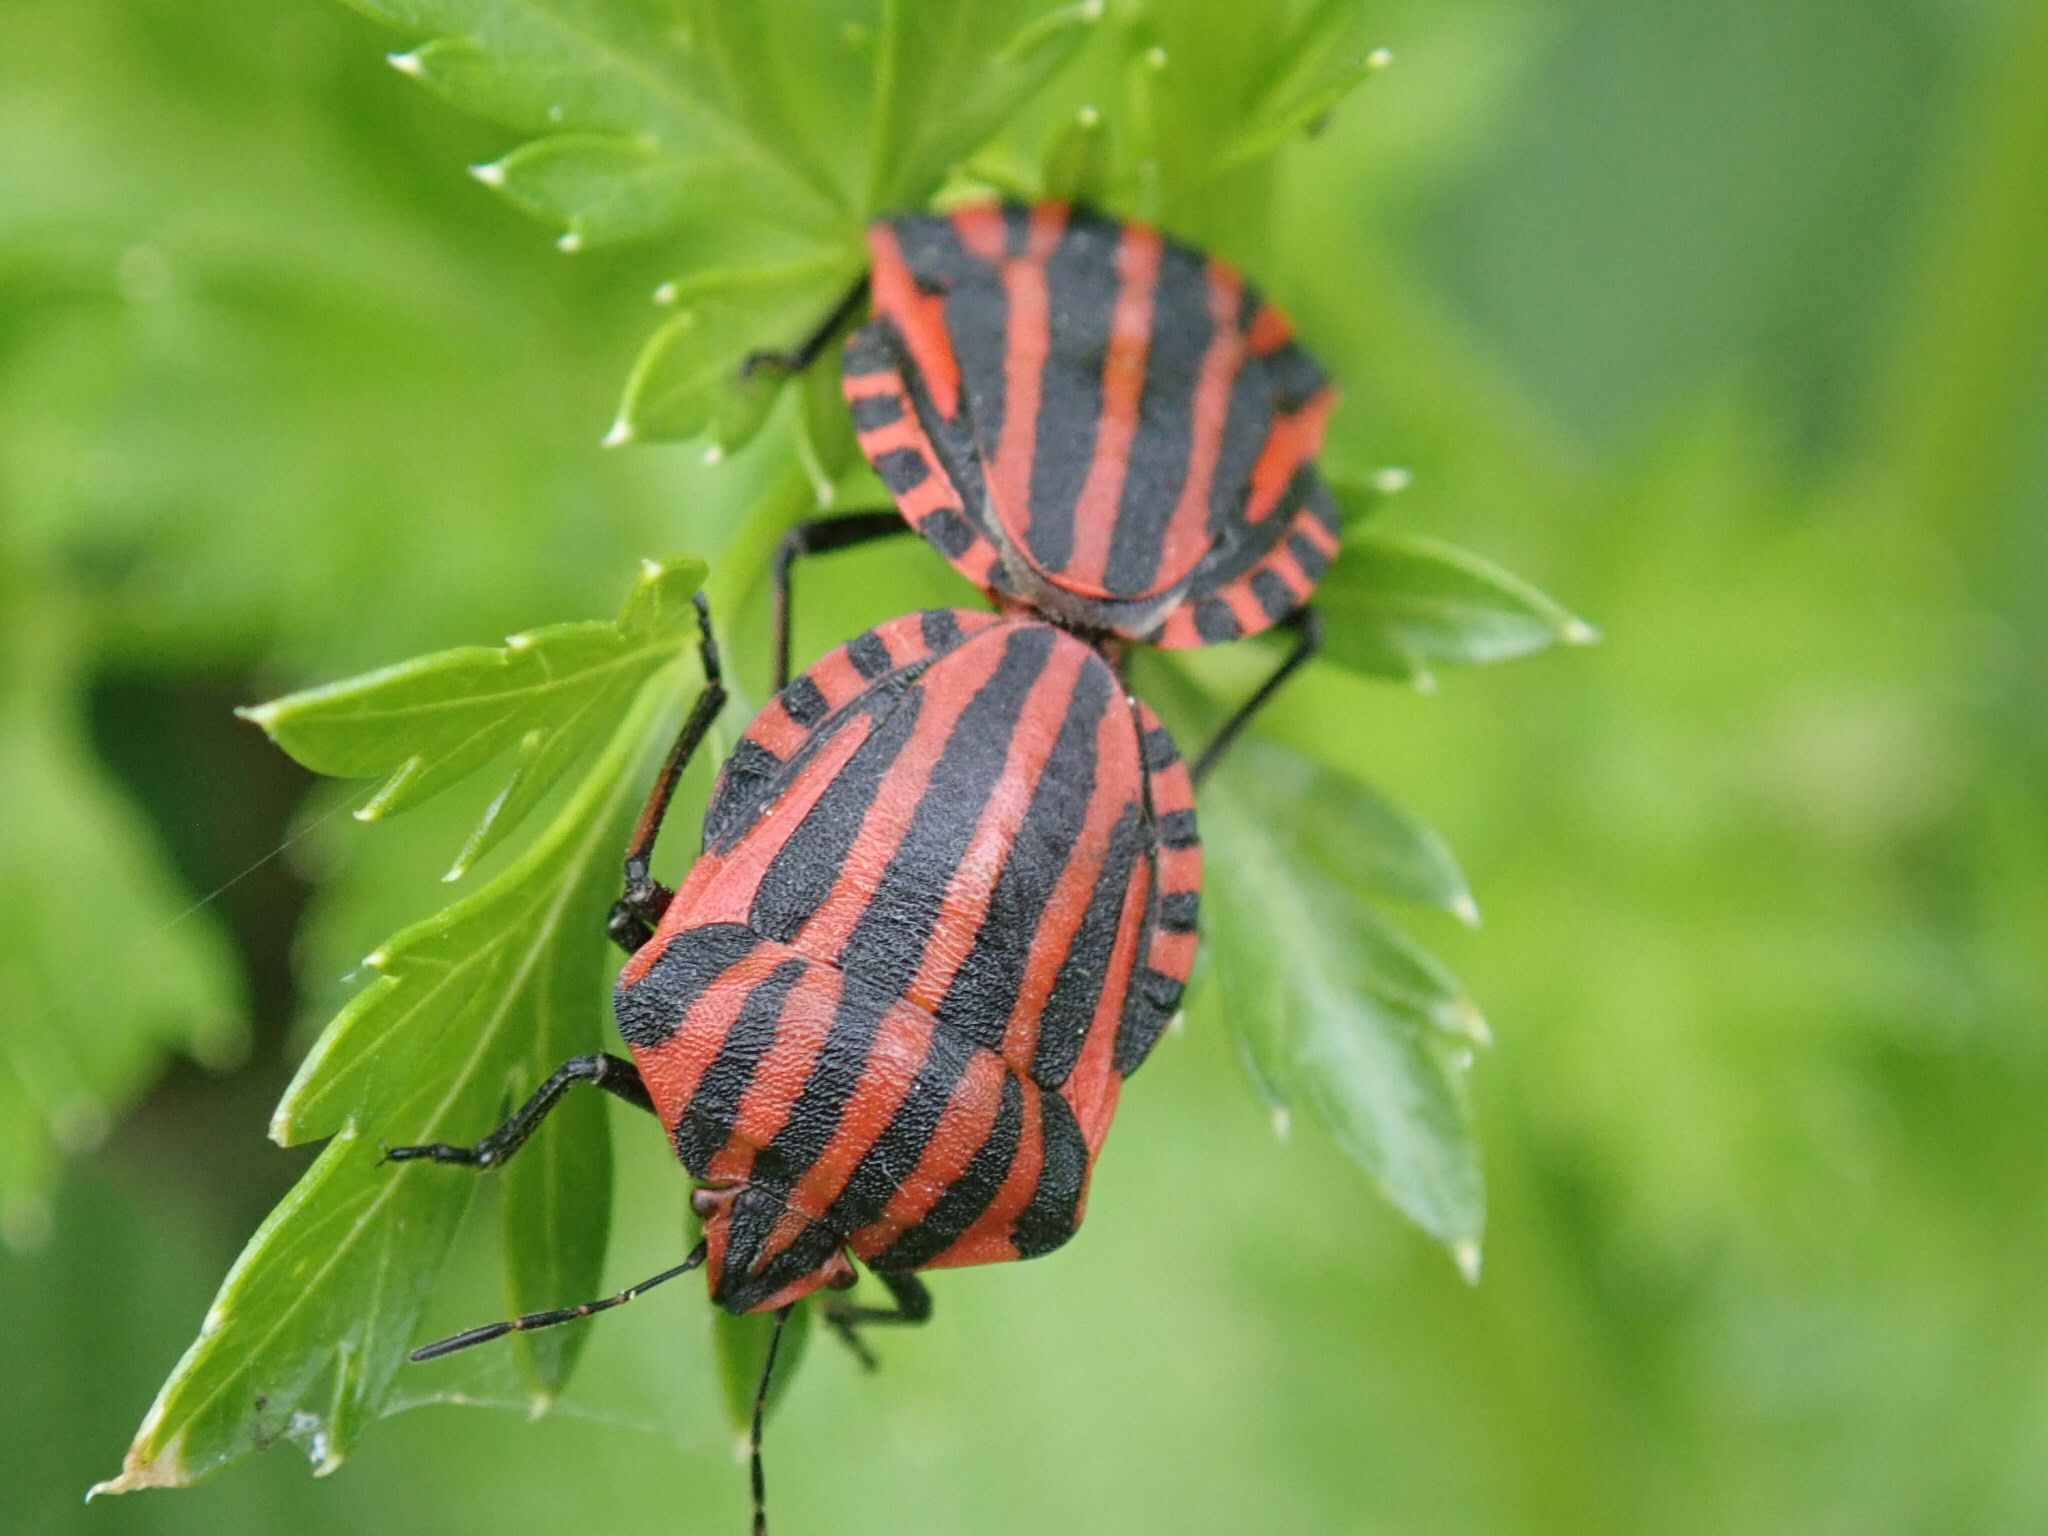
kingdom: Animalia
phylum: Arthropoda
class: Insecta
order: Hemiptera
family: Pentatomidae
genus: Graphosoma
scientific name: Graphosoma italicum
